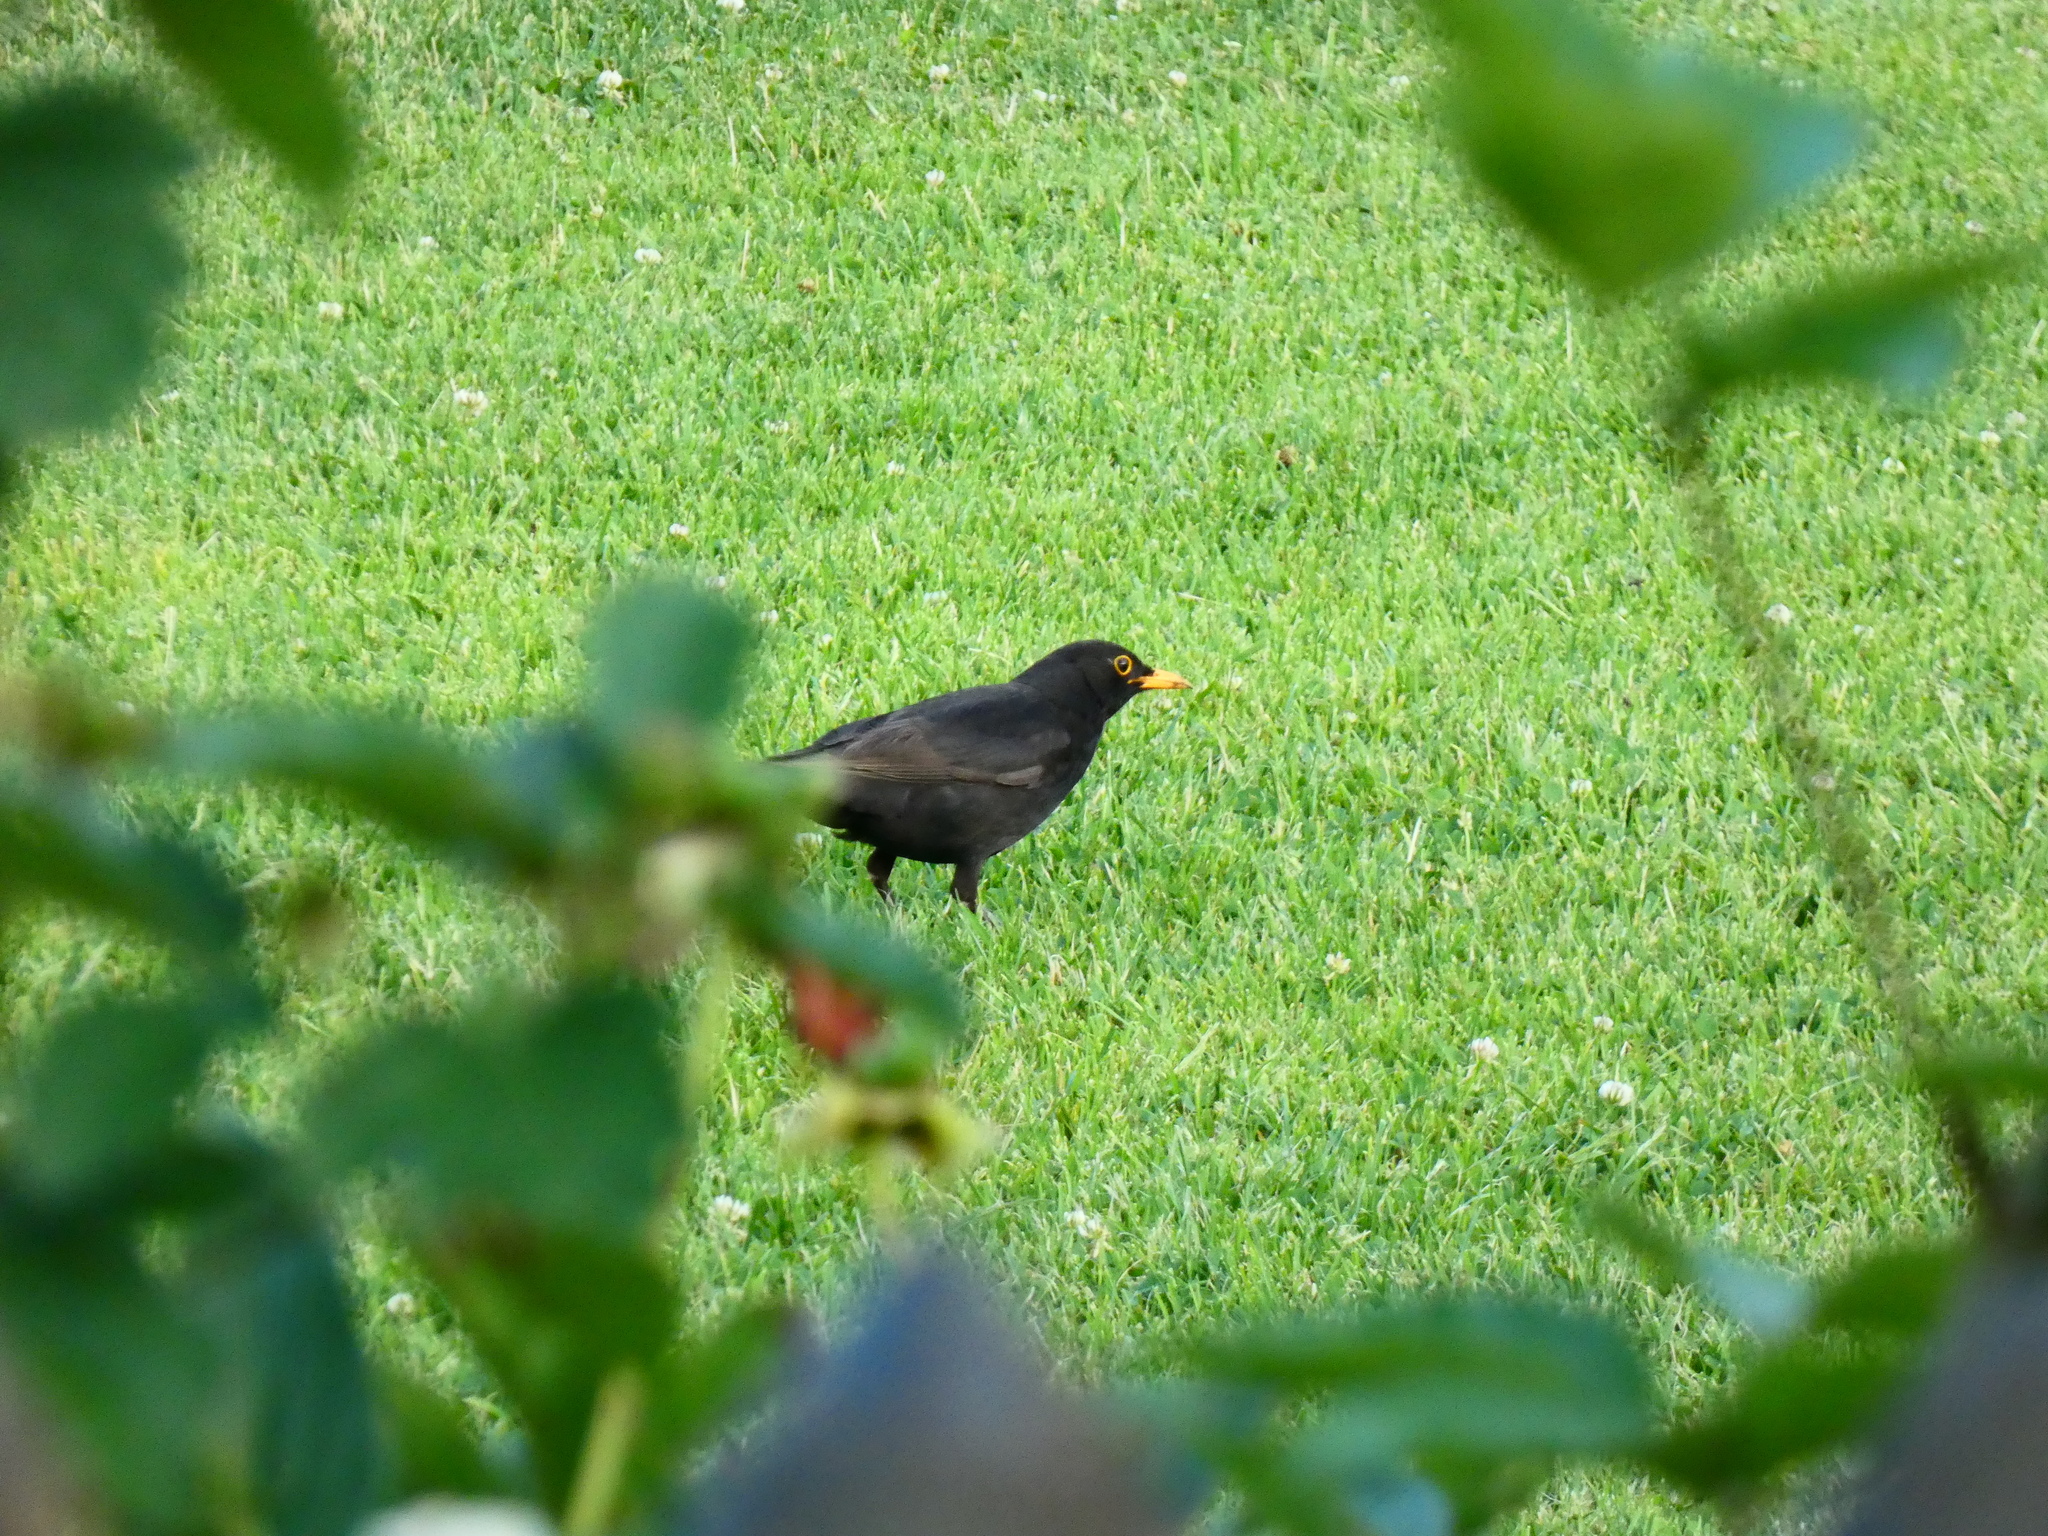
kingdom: Animalia
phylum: Chordata
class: Aves
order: Passeriformes
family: Turdidae
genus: Turdus
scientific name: Turdus merula
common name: Common blackbird
